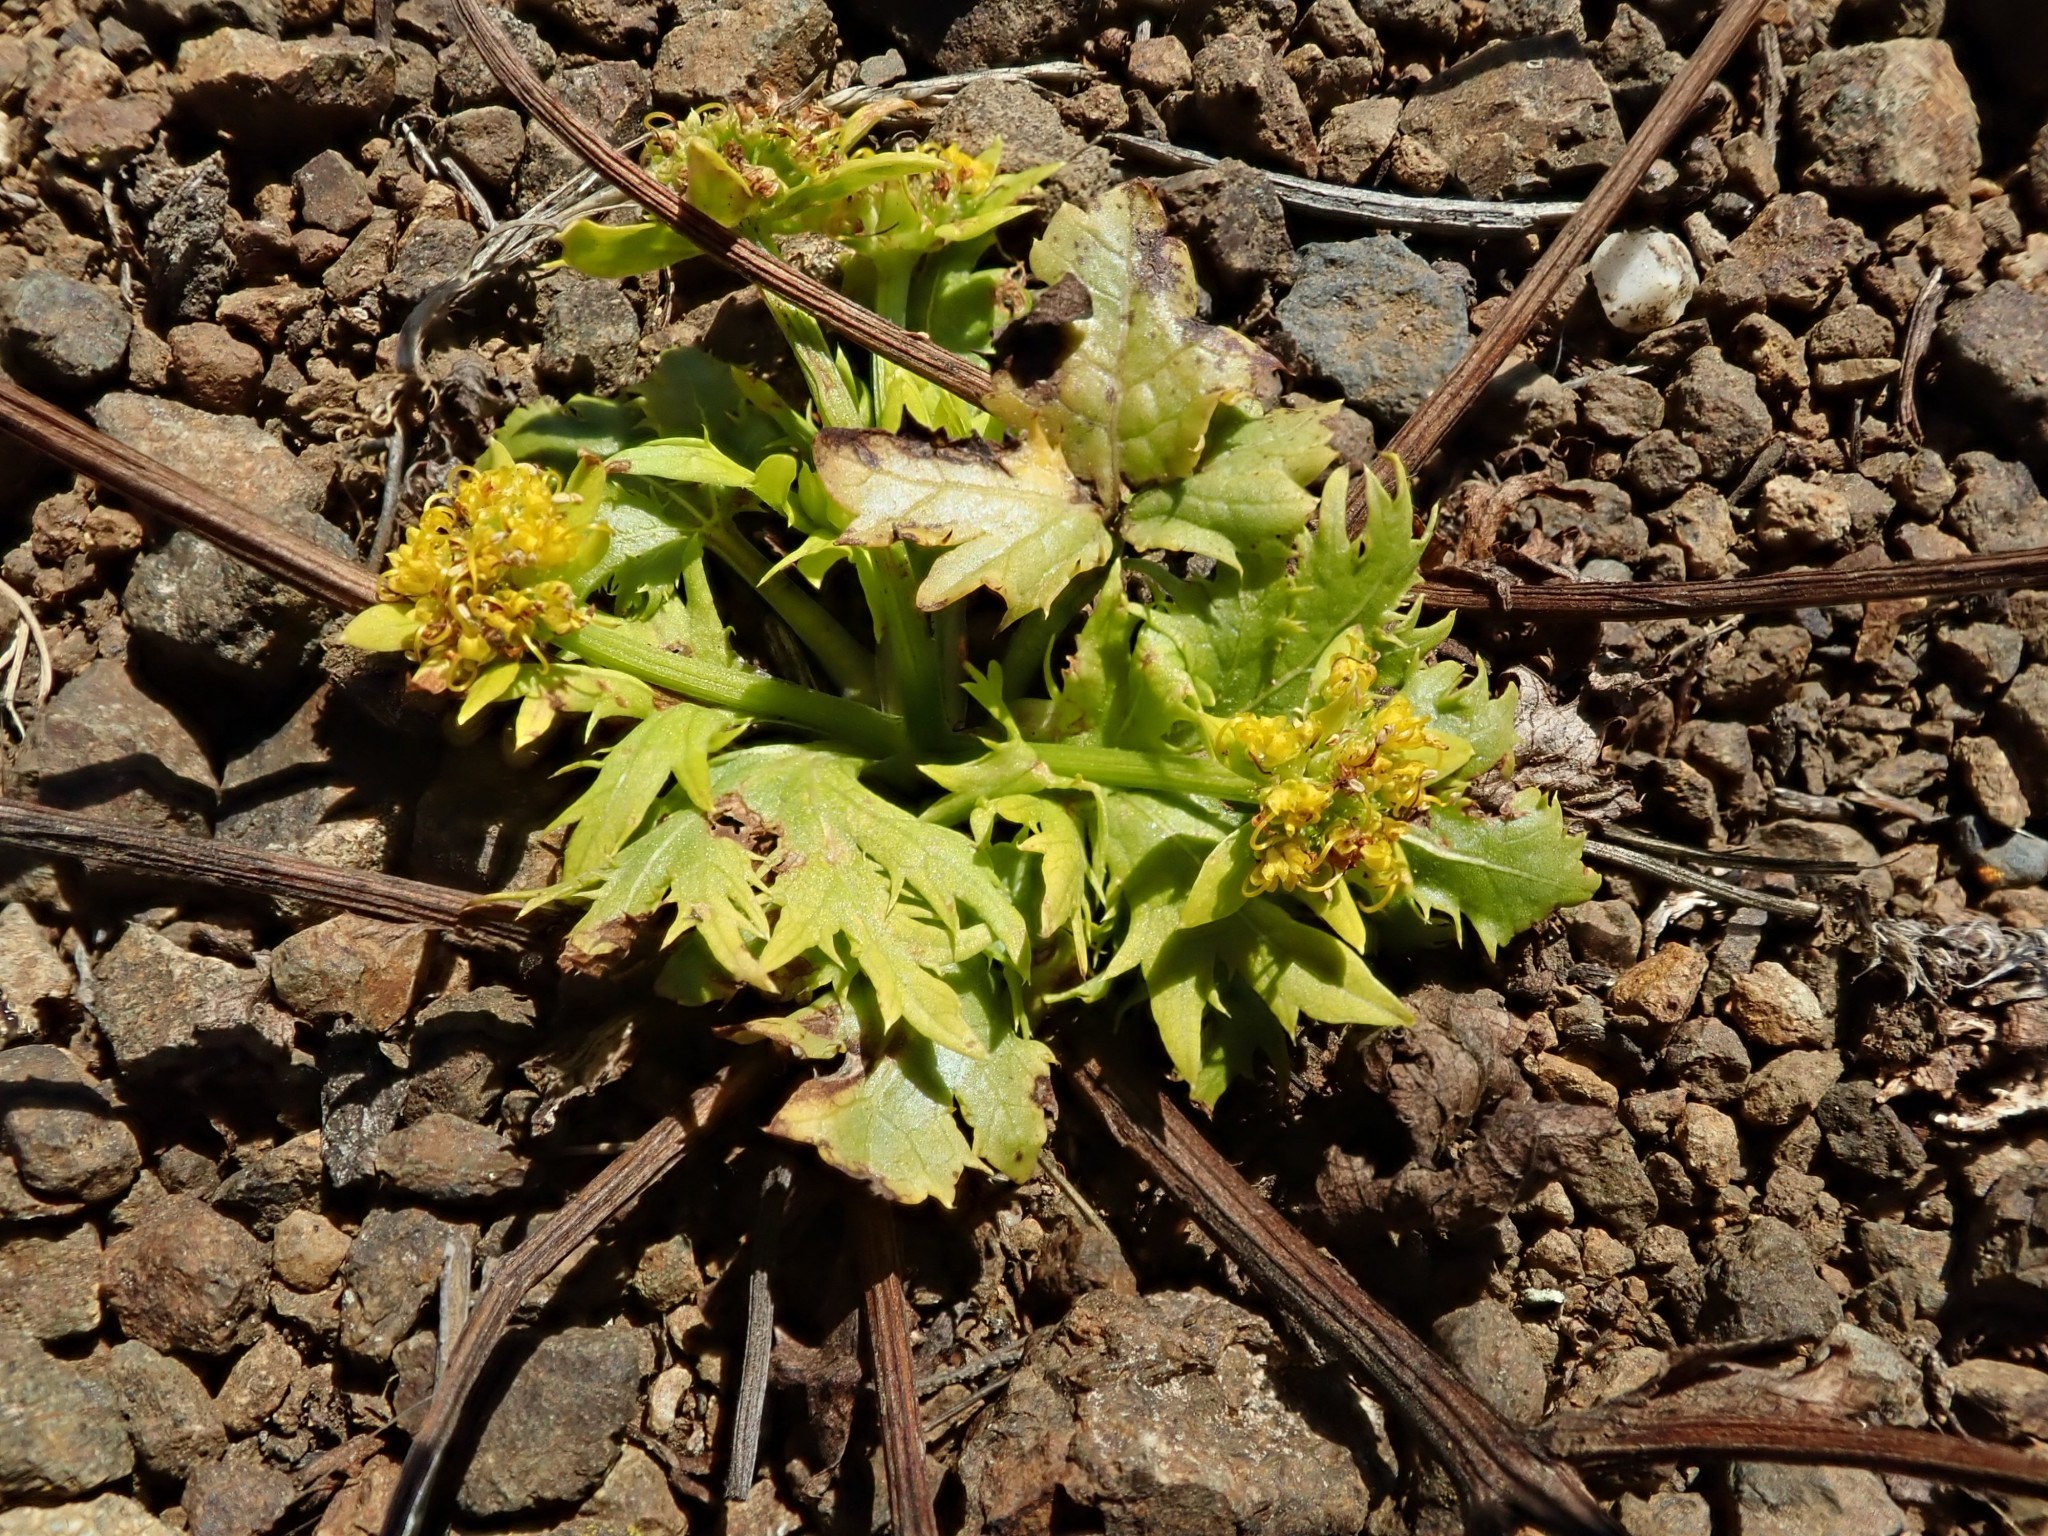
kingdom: Plantae
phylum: Tracheophyta
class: Magnoliopsida
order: Apiales
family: Apiaceae
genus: Sanicula
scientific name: Sanicula arctopoides
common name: Footsteps-of-spring
